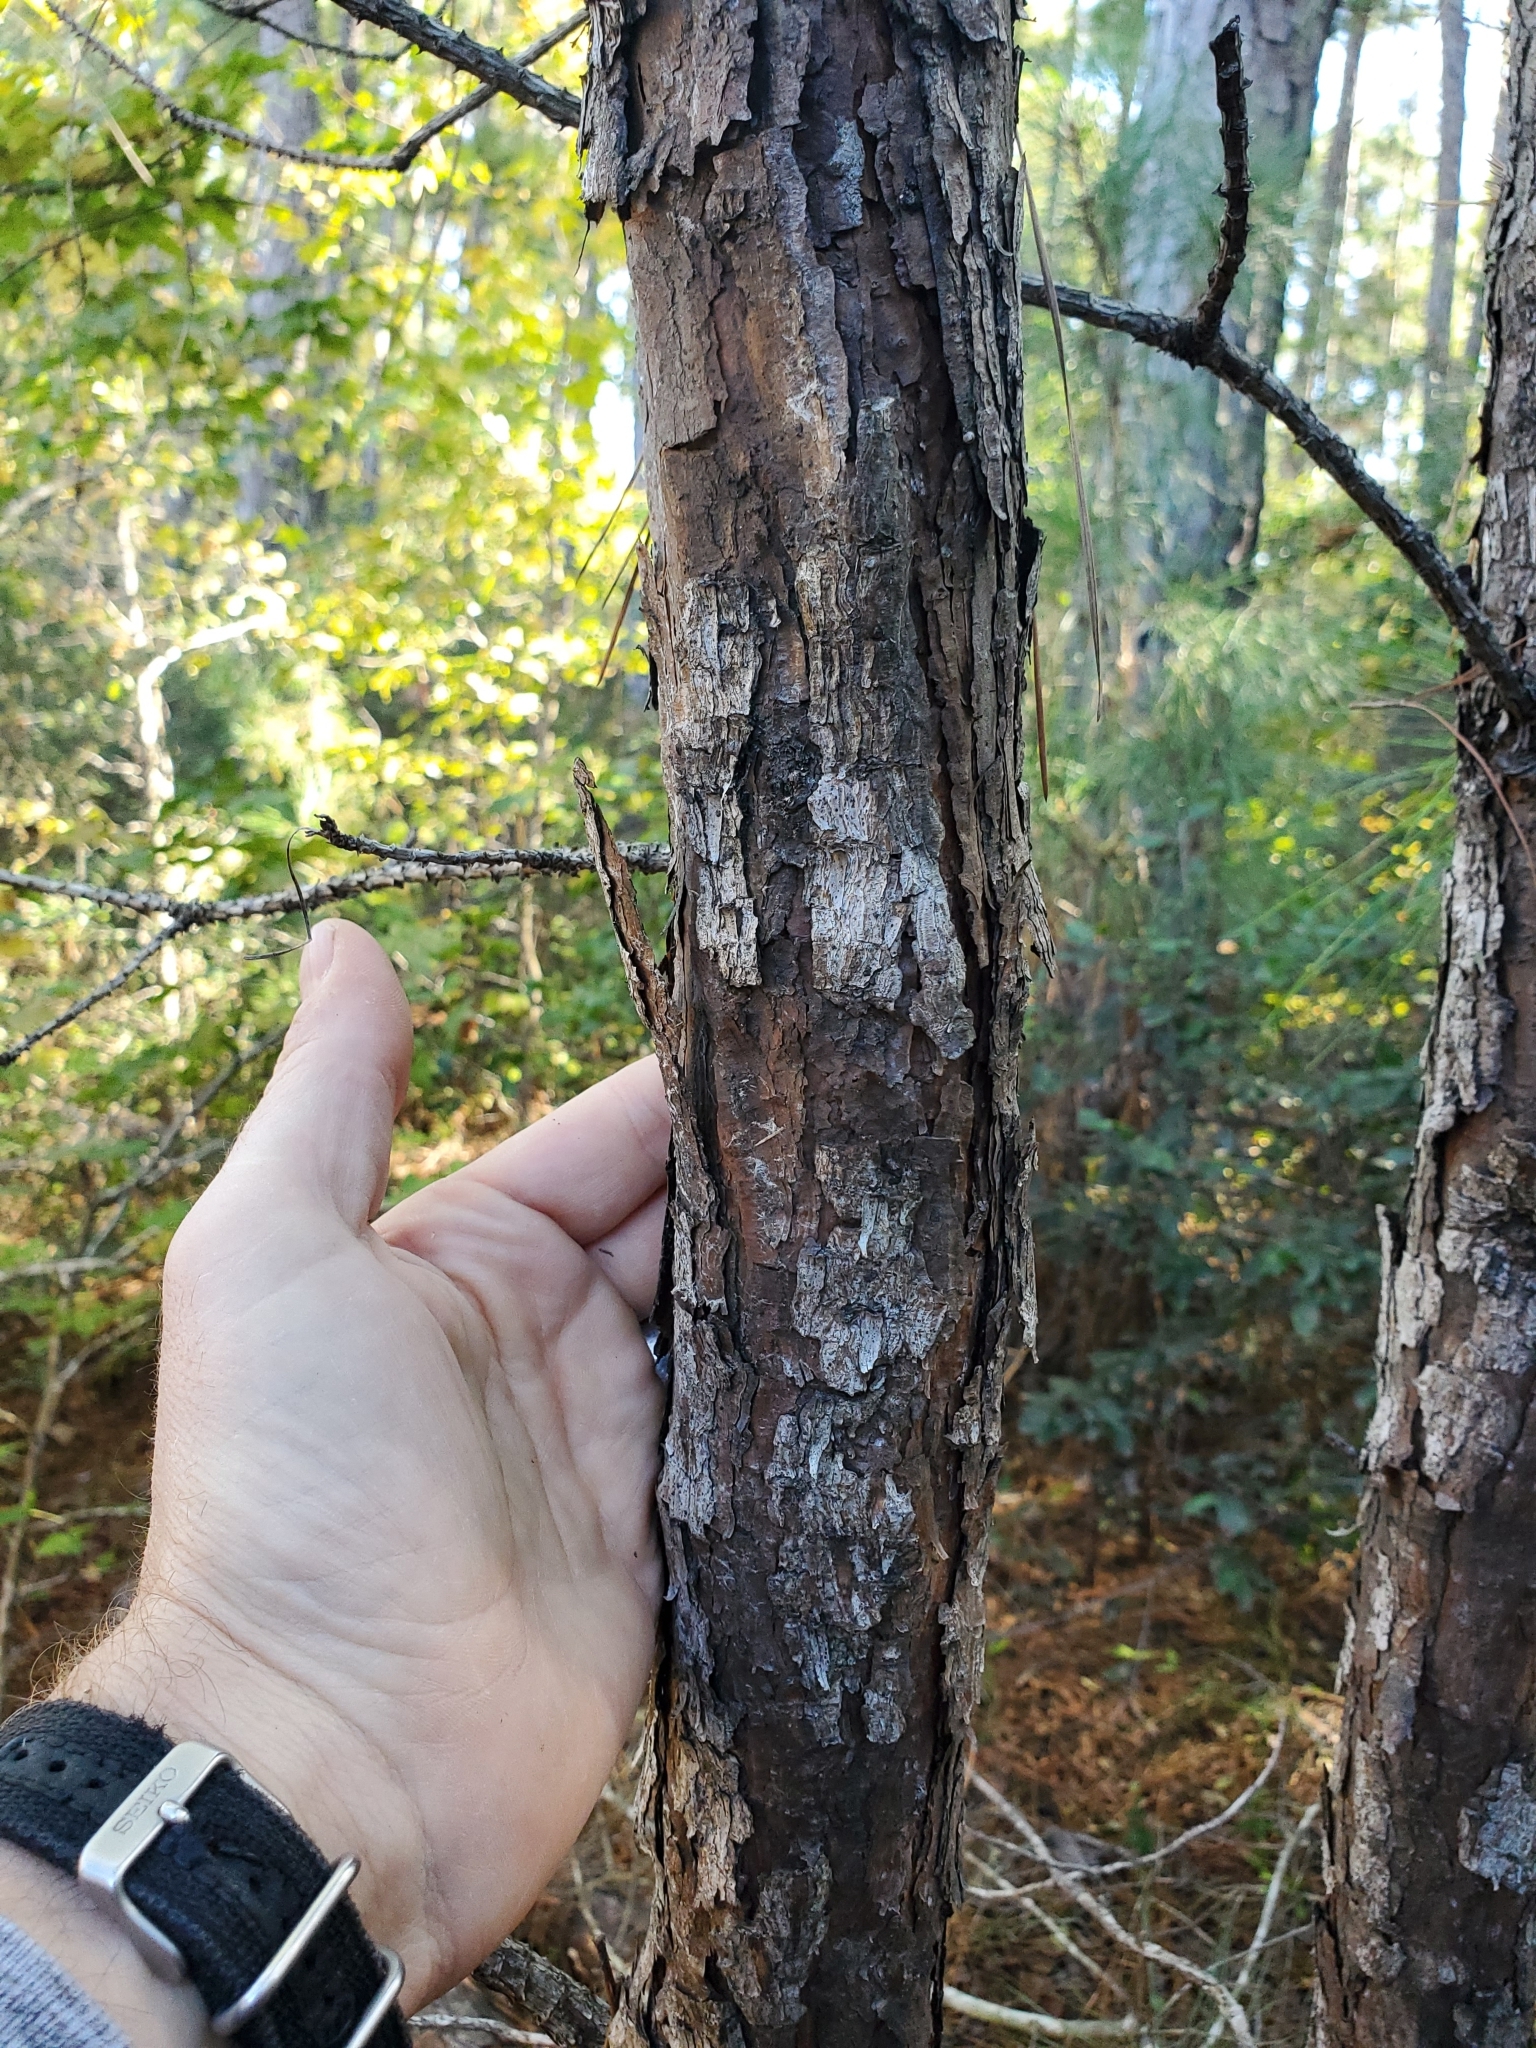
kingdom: Plantae
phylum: Tracheophyta
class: Pinopsida
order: Pinales
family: Pinaceae
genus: Pinus
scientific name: Pinus taeda
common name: Loblolly pine
